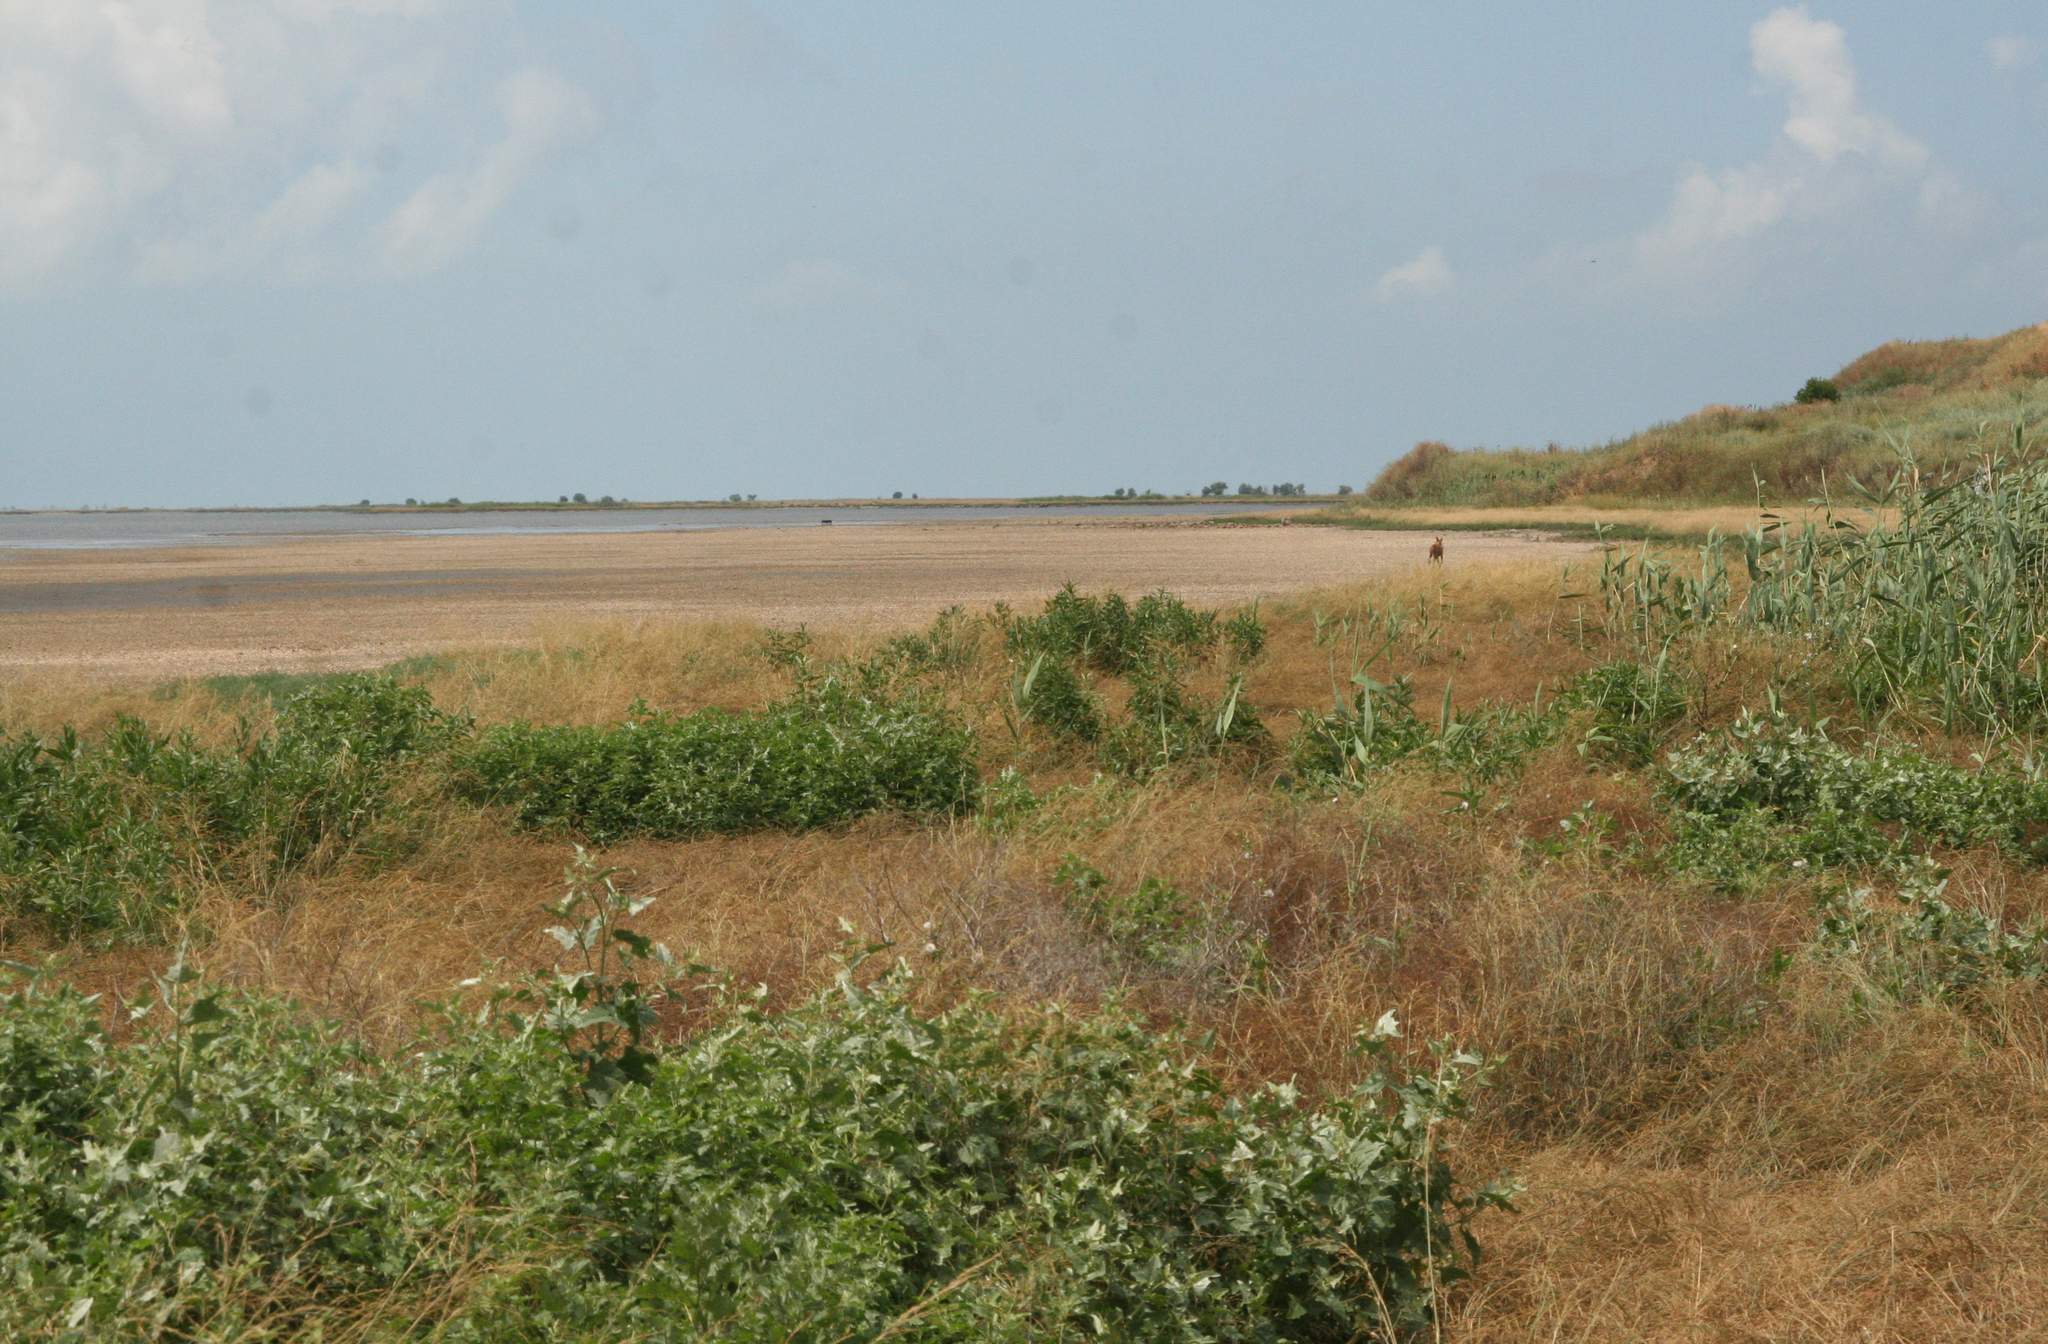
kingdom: Animalia
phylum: Chordata
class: Mammalia
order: Carnivora
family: Canidae
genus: Canis
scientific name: Canis aureus
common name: Golden jackal
